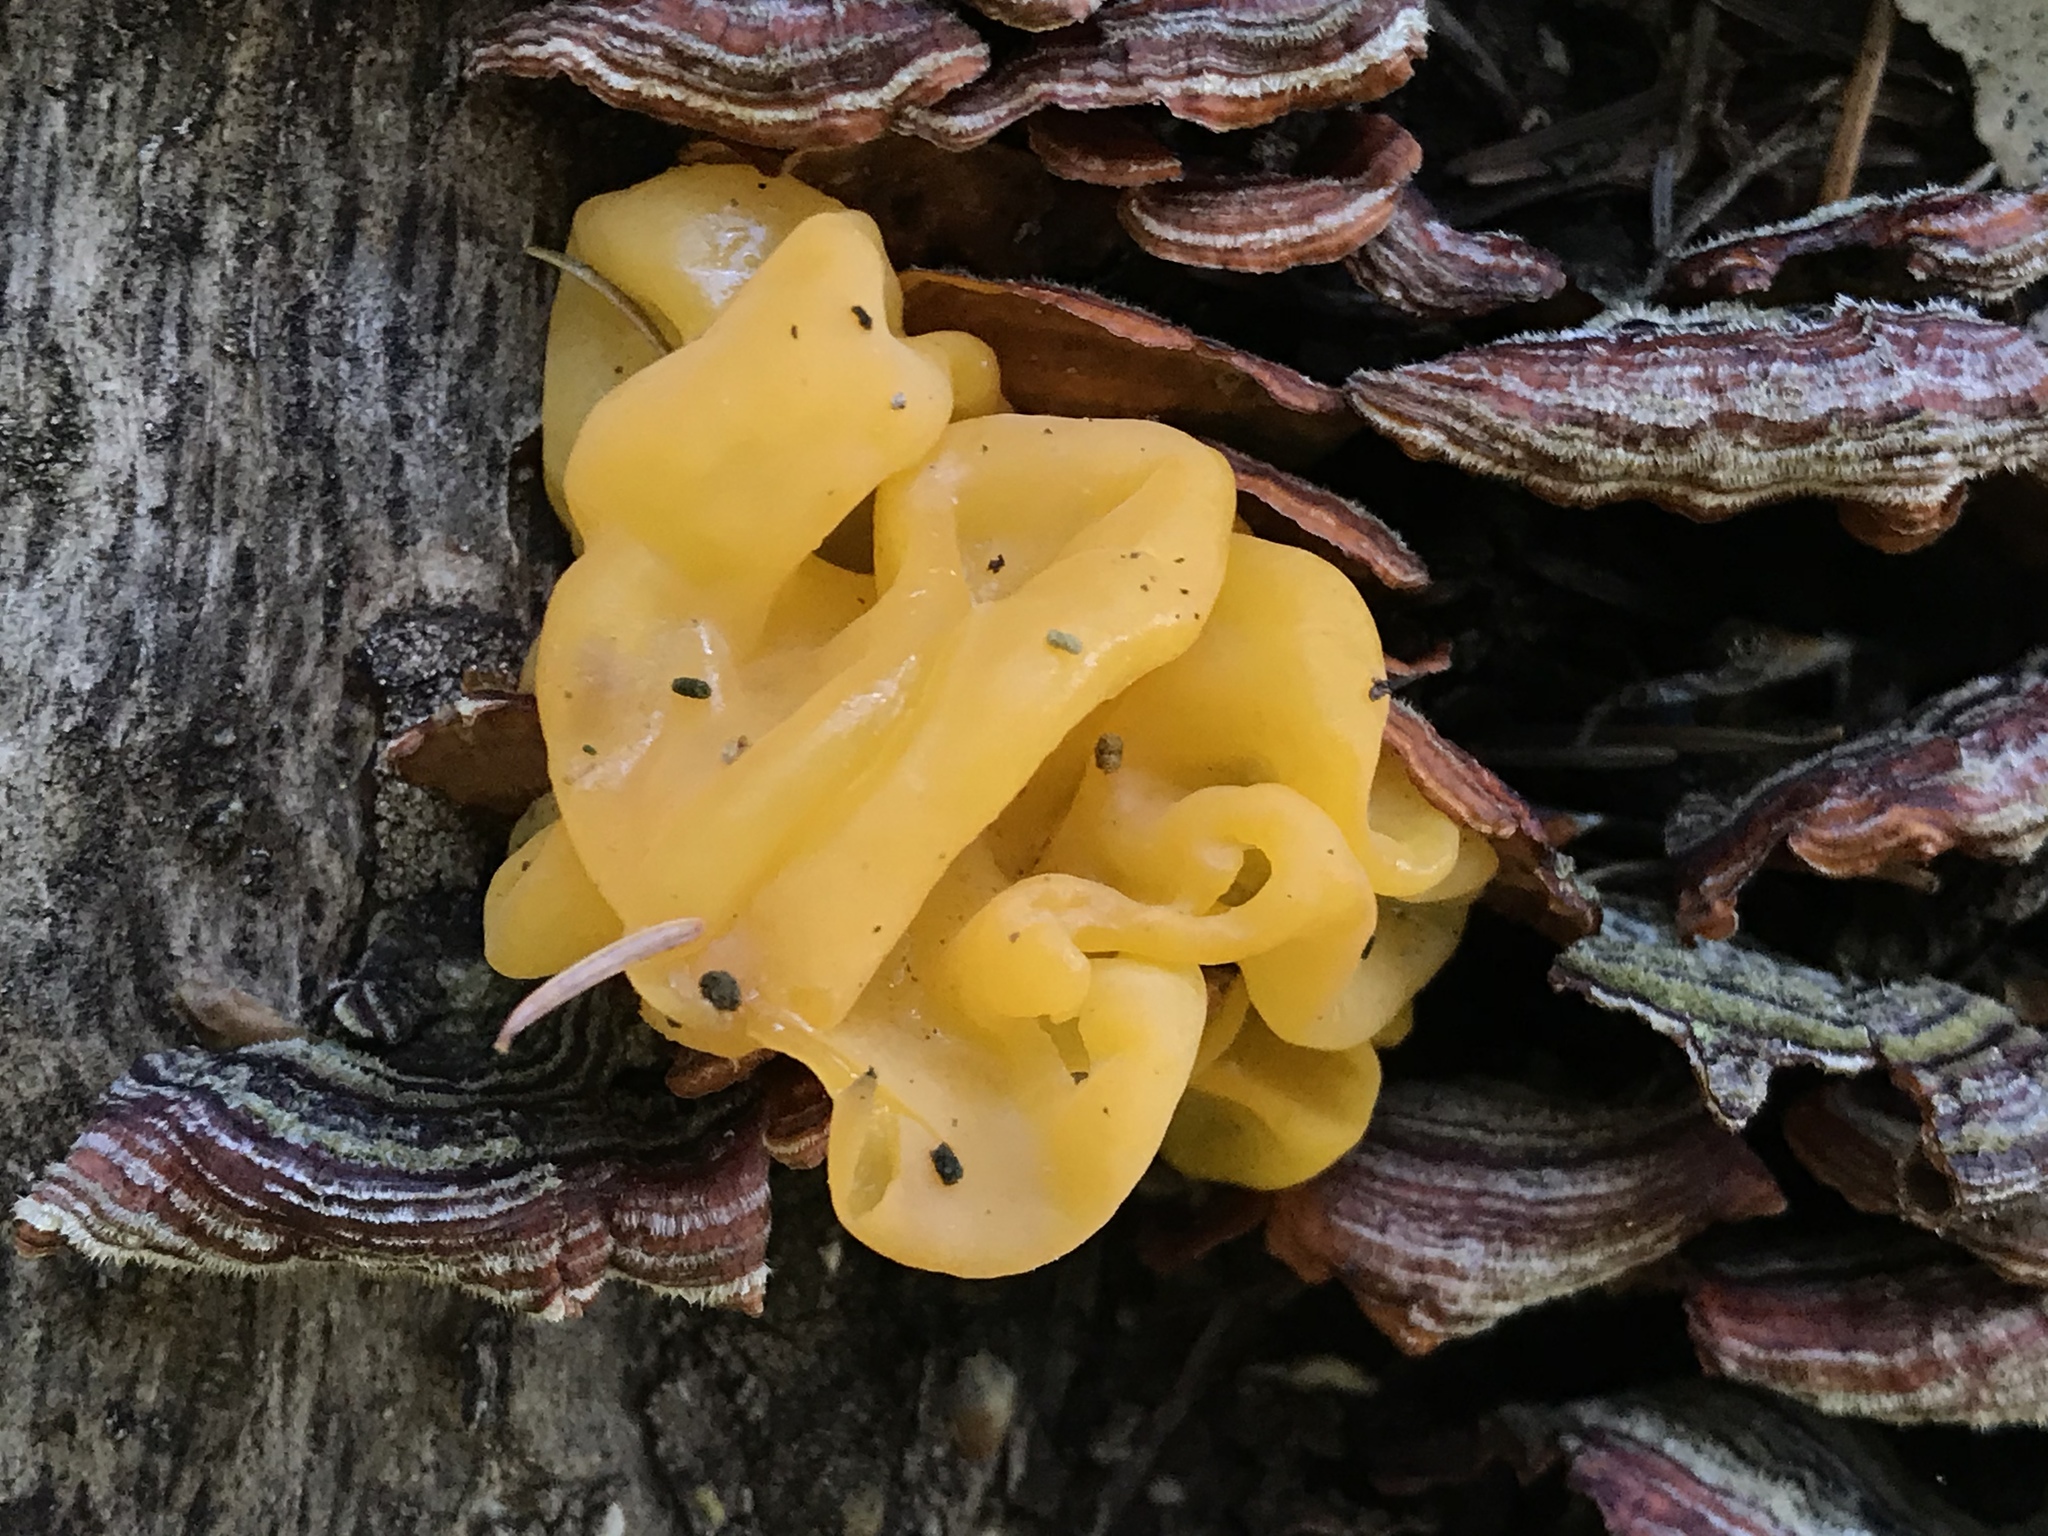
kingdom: Fungi
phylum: Basidiomycota
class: Tremellomycetes
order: Tremellales
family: Naemateliaceae
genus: Naematelia
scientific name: Naematelia aurantia
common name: Golden ear
